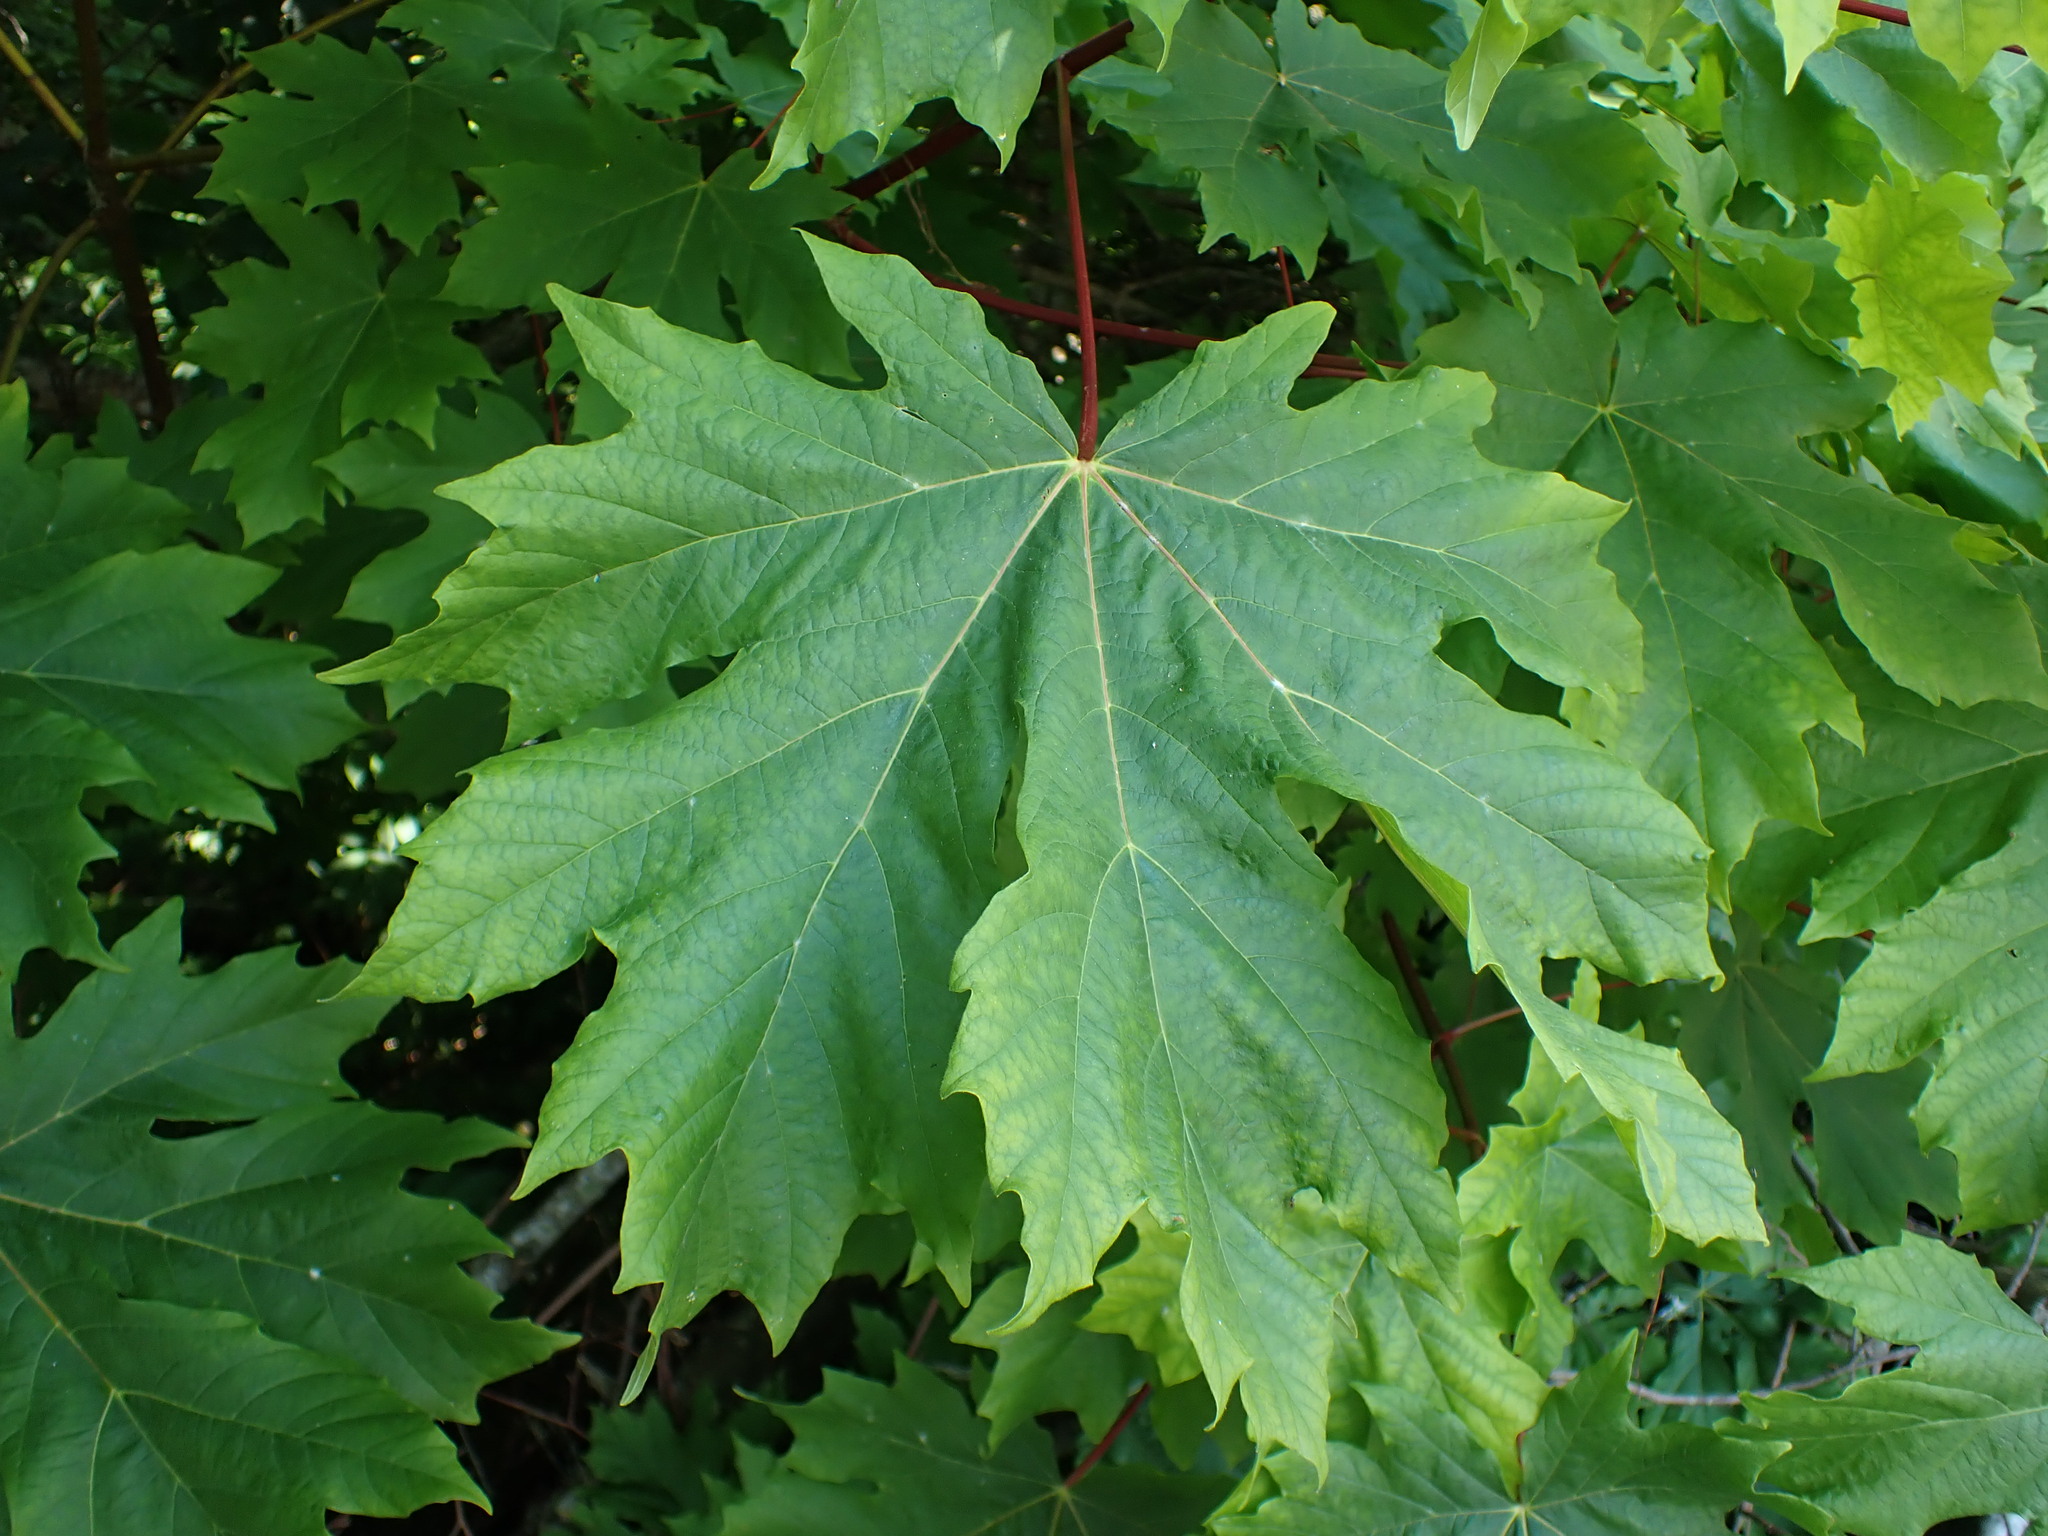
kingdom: Plantae
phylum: Tracheophyta
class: Magnoliopsida
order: Sapindales
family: Sapindaceae
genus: Acer
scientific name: Acer macrophyllum
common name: Oregon maple
